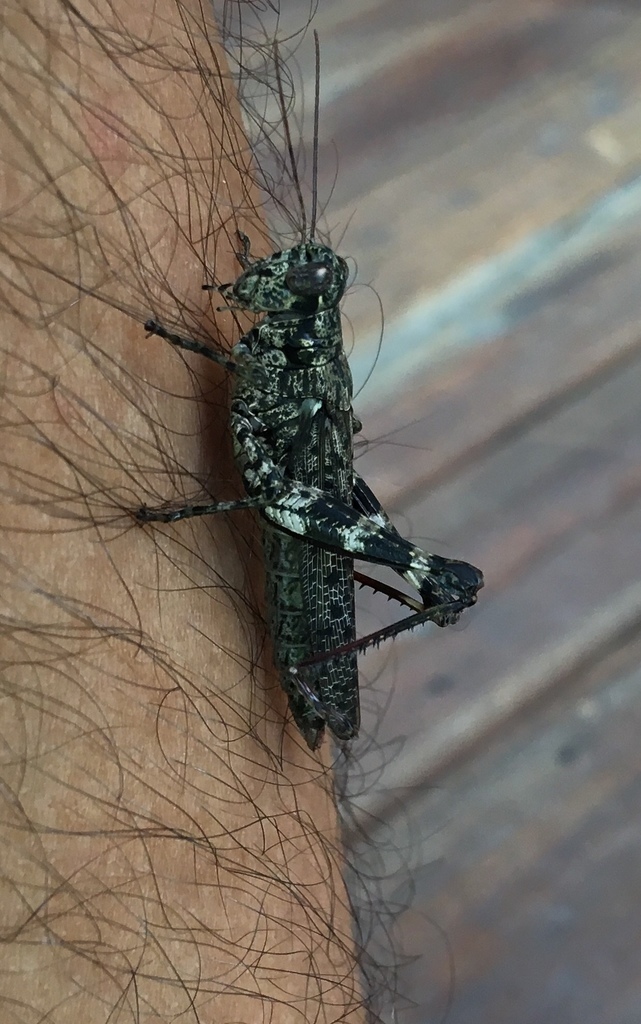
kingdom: Animalia
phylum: Arthropoda
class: Insecta
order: Orthoptera
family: Acrididae
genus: Melanoplus
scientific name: Melanoplus punctulatus
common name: Pine-tree spur-throat grasshopper
